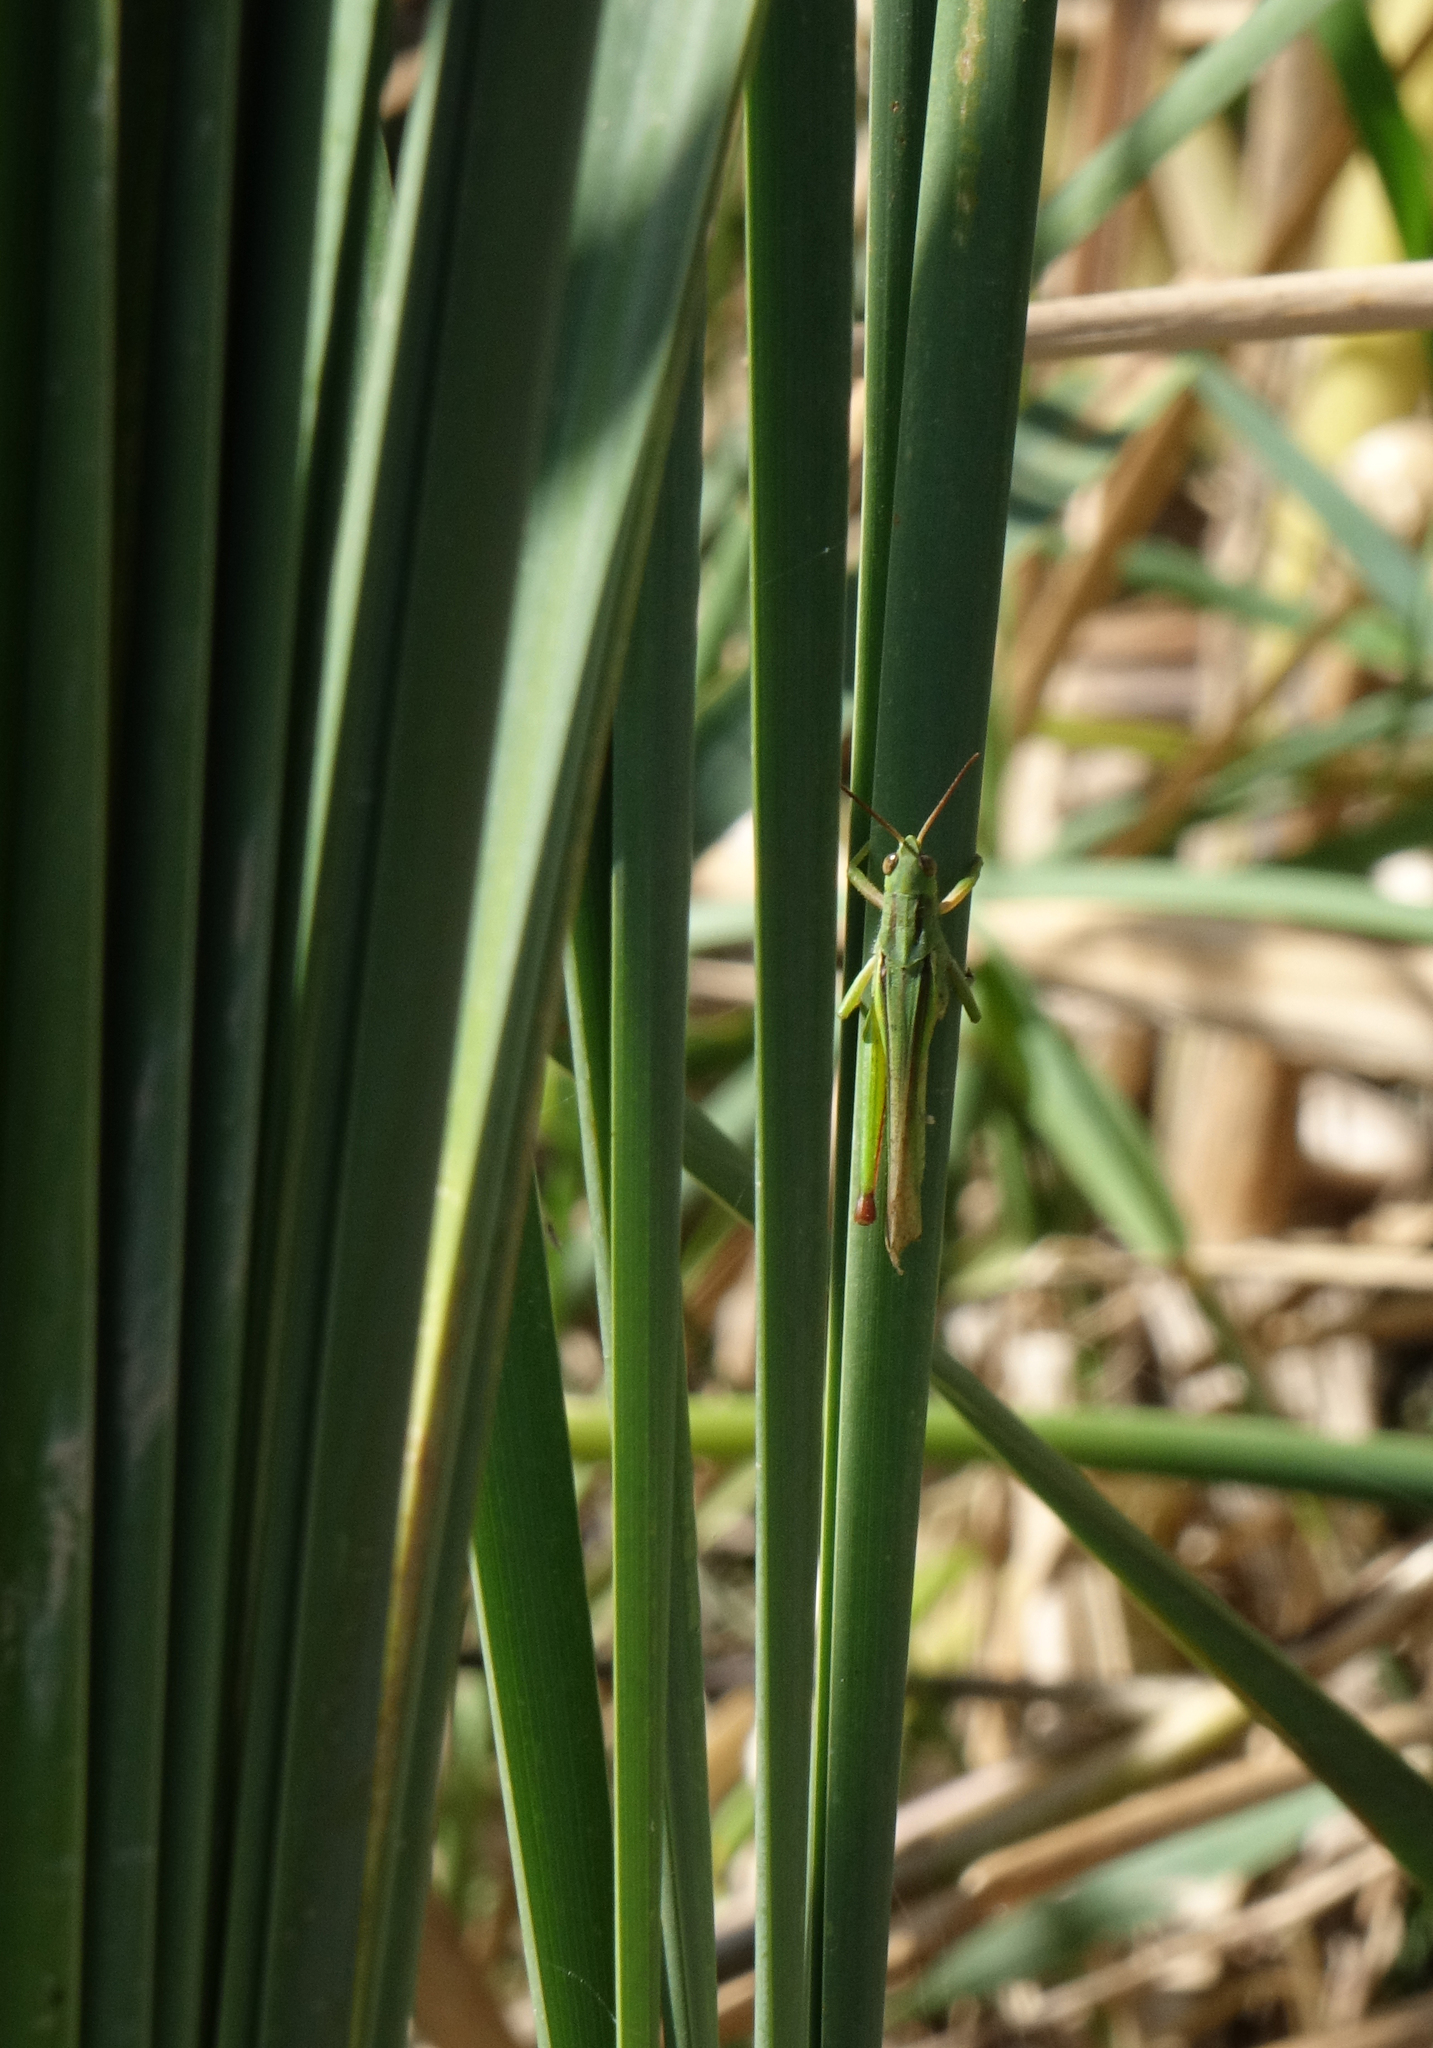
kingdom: Animalia
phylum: Arthropoda
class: Insecta
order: Orthoptera
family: Acrididae
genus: Paracinema
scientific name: Paracinema tricolor
